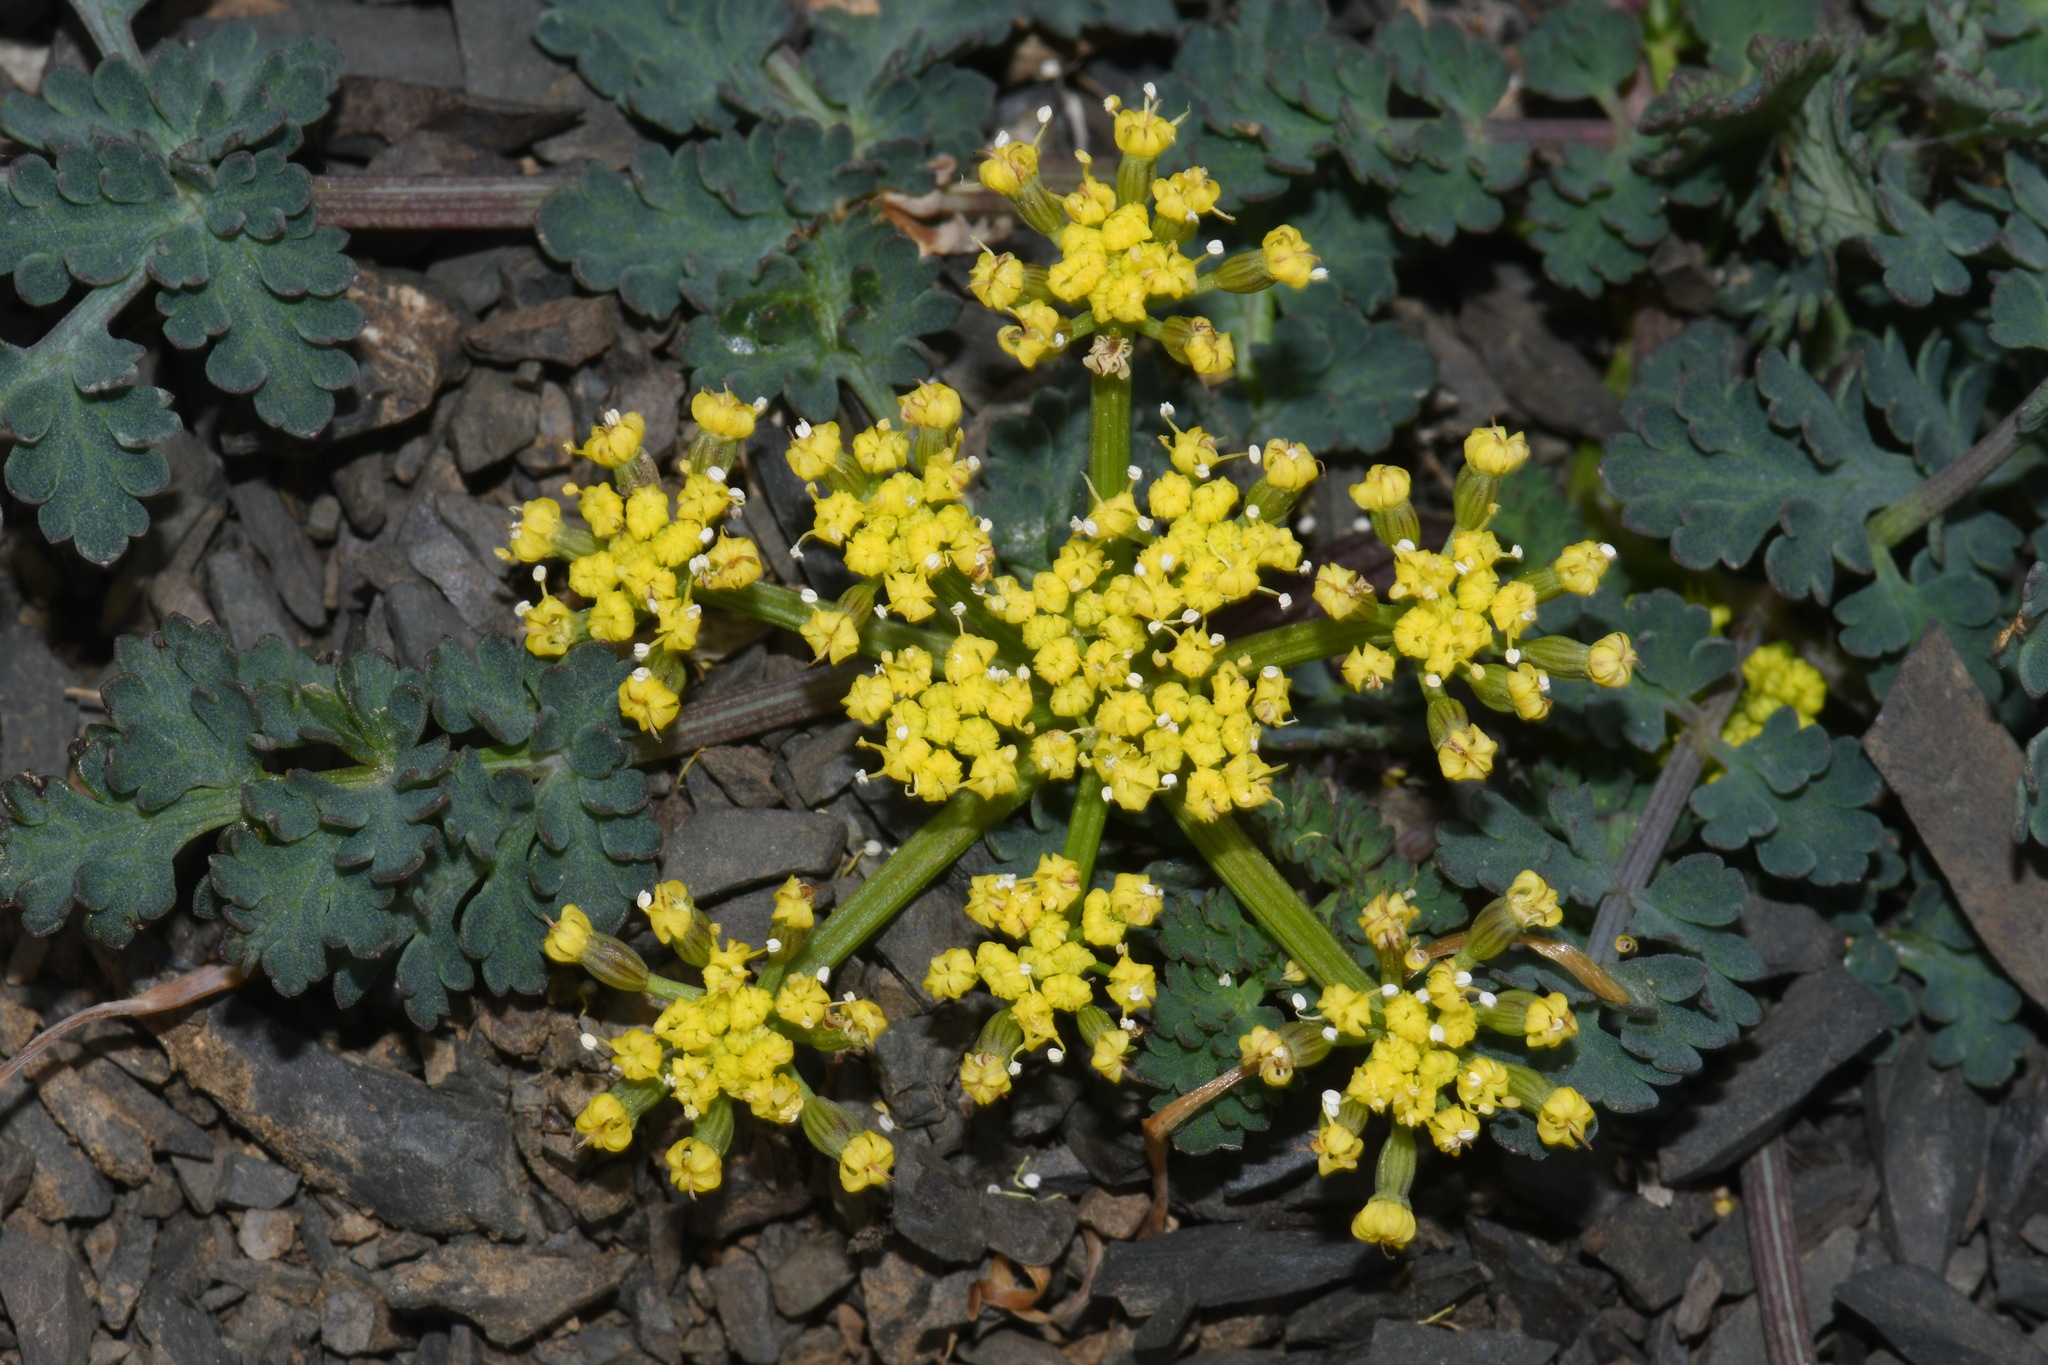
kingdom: Plantae
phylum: Tracheophyta
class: Magnoliopsida
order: Apiales
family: Apiaceae
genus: Lomatium
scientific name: Lomatium martindalei
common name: Cascade desert-parsley
